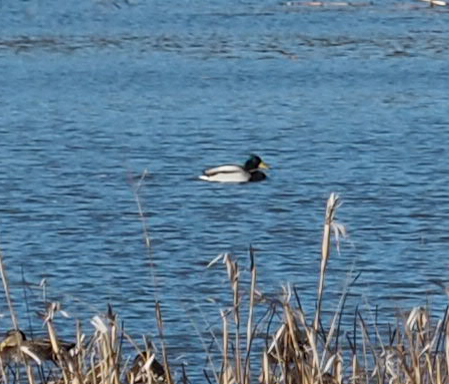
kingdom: Animalia
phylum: Chordata
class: Aves
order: Anseriformes
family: Anatidae
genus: Anas
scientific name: Anas platyrhynchos
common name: Mallard
